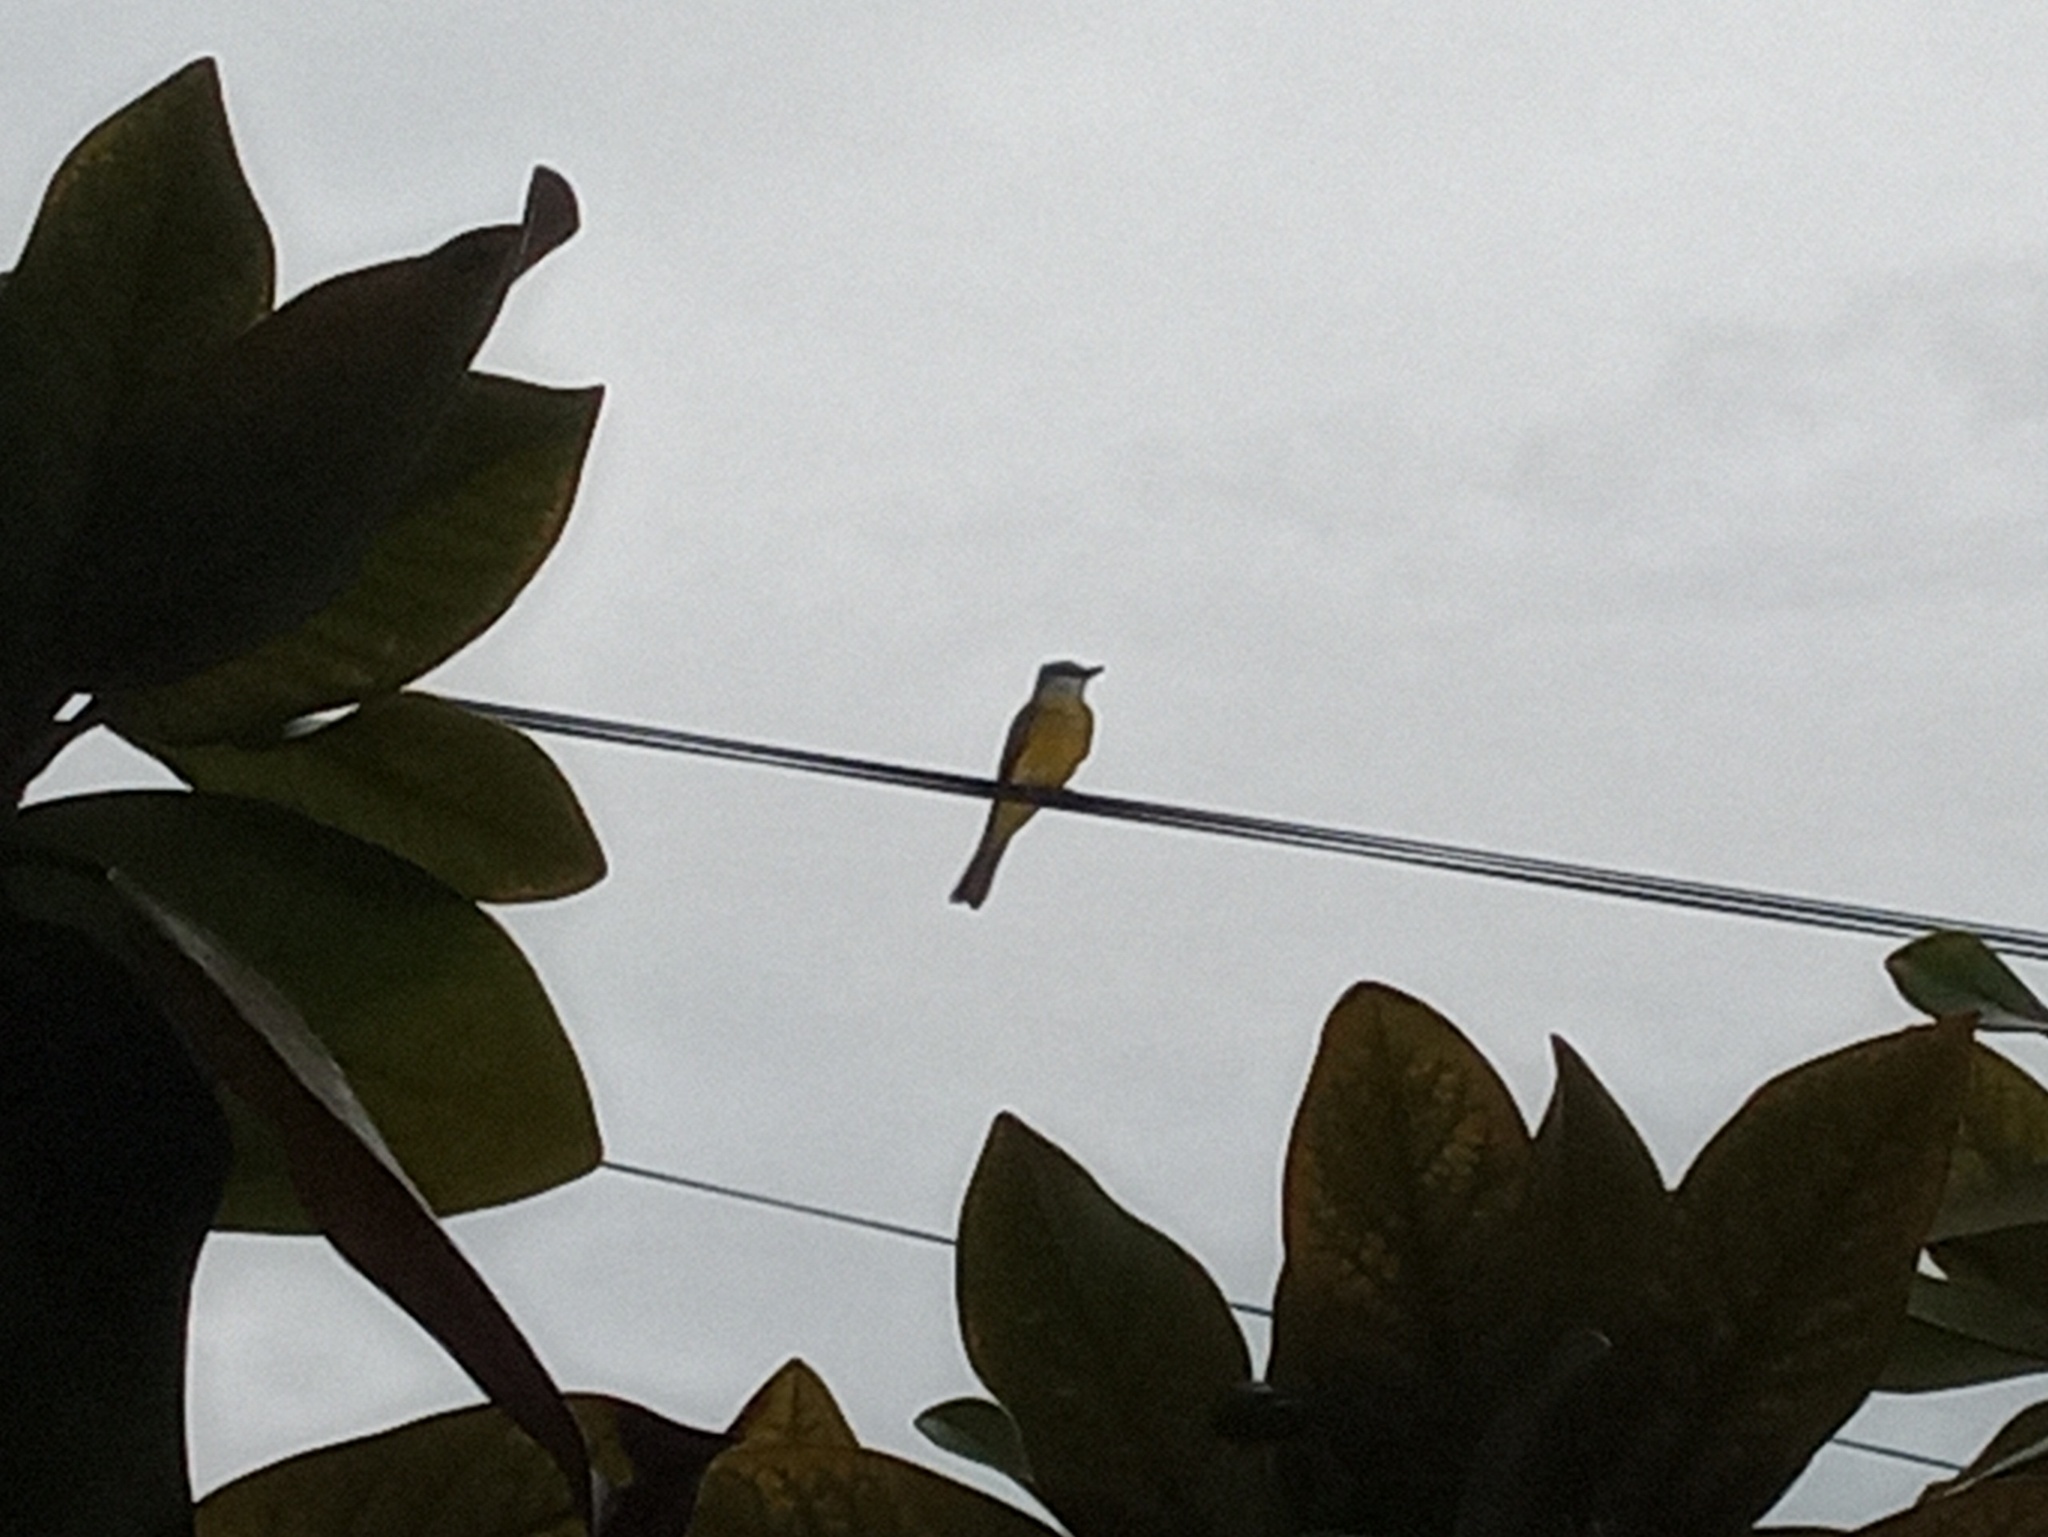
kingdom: Animalia
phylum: Chordata
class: Aves
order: Passeriformes
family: Tyrannidae
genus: Tyrannus
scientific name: Tyrannus melancholicus
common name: Tropical kingbird
